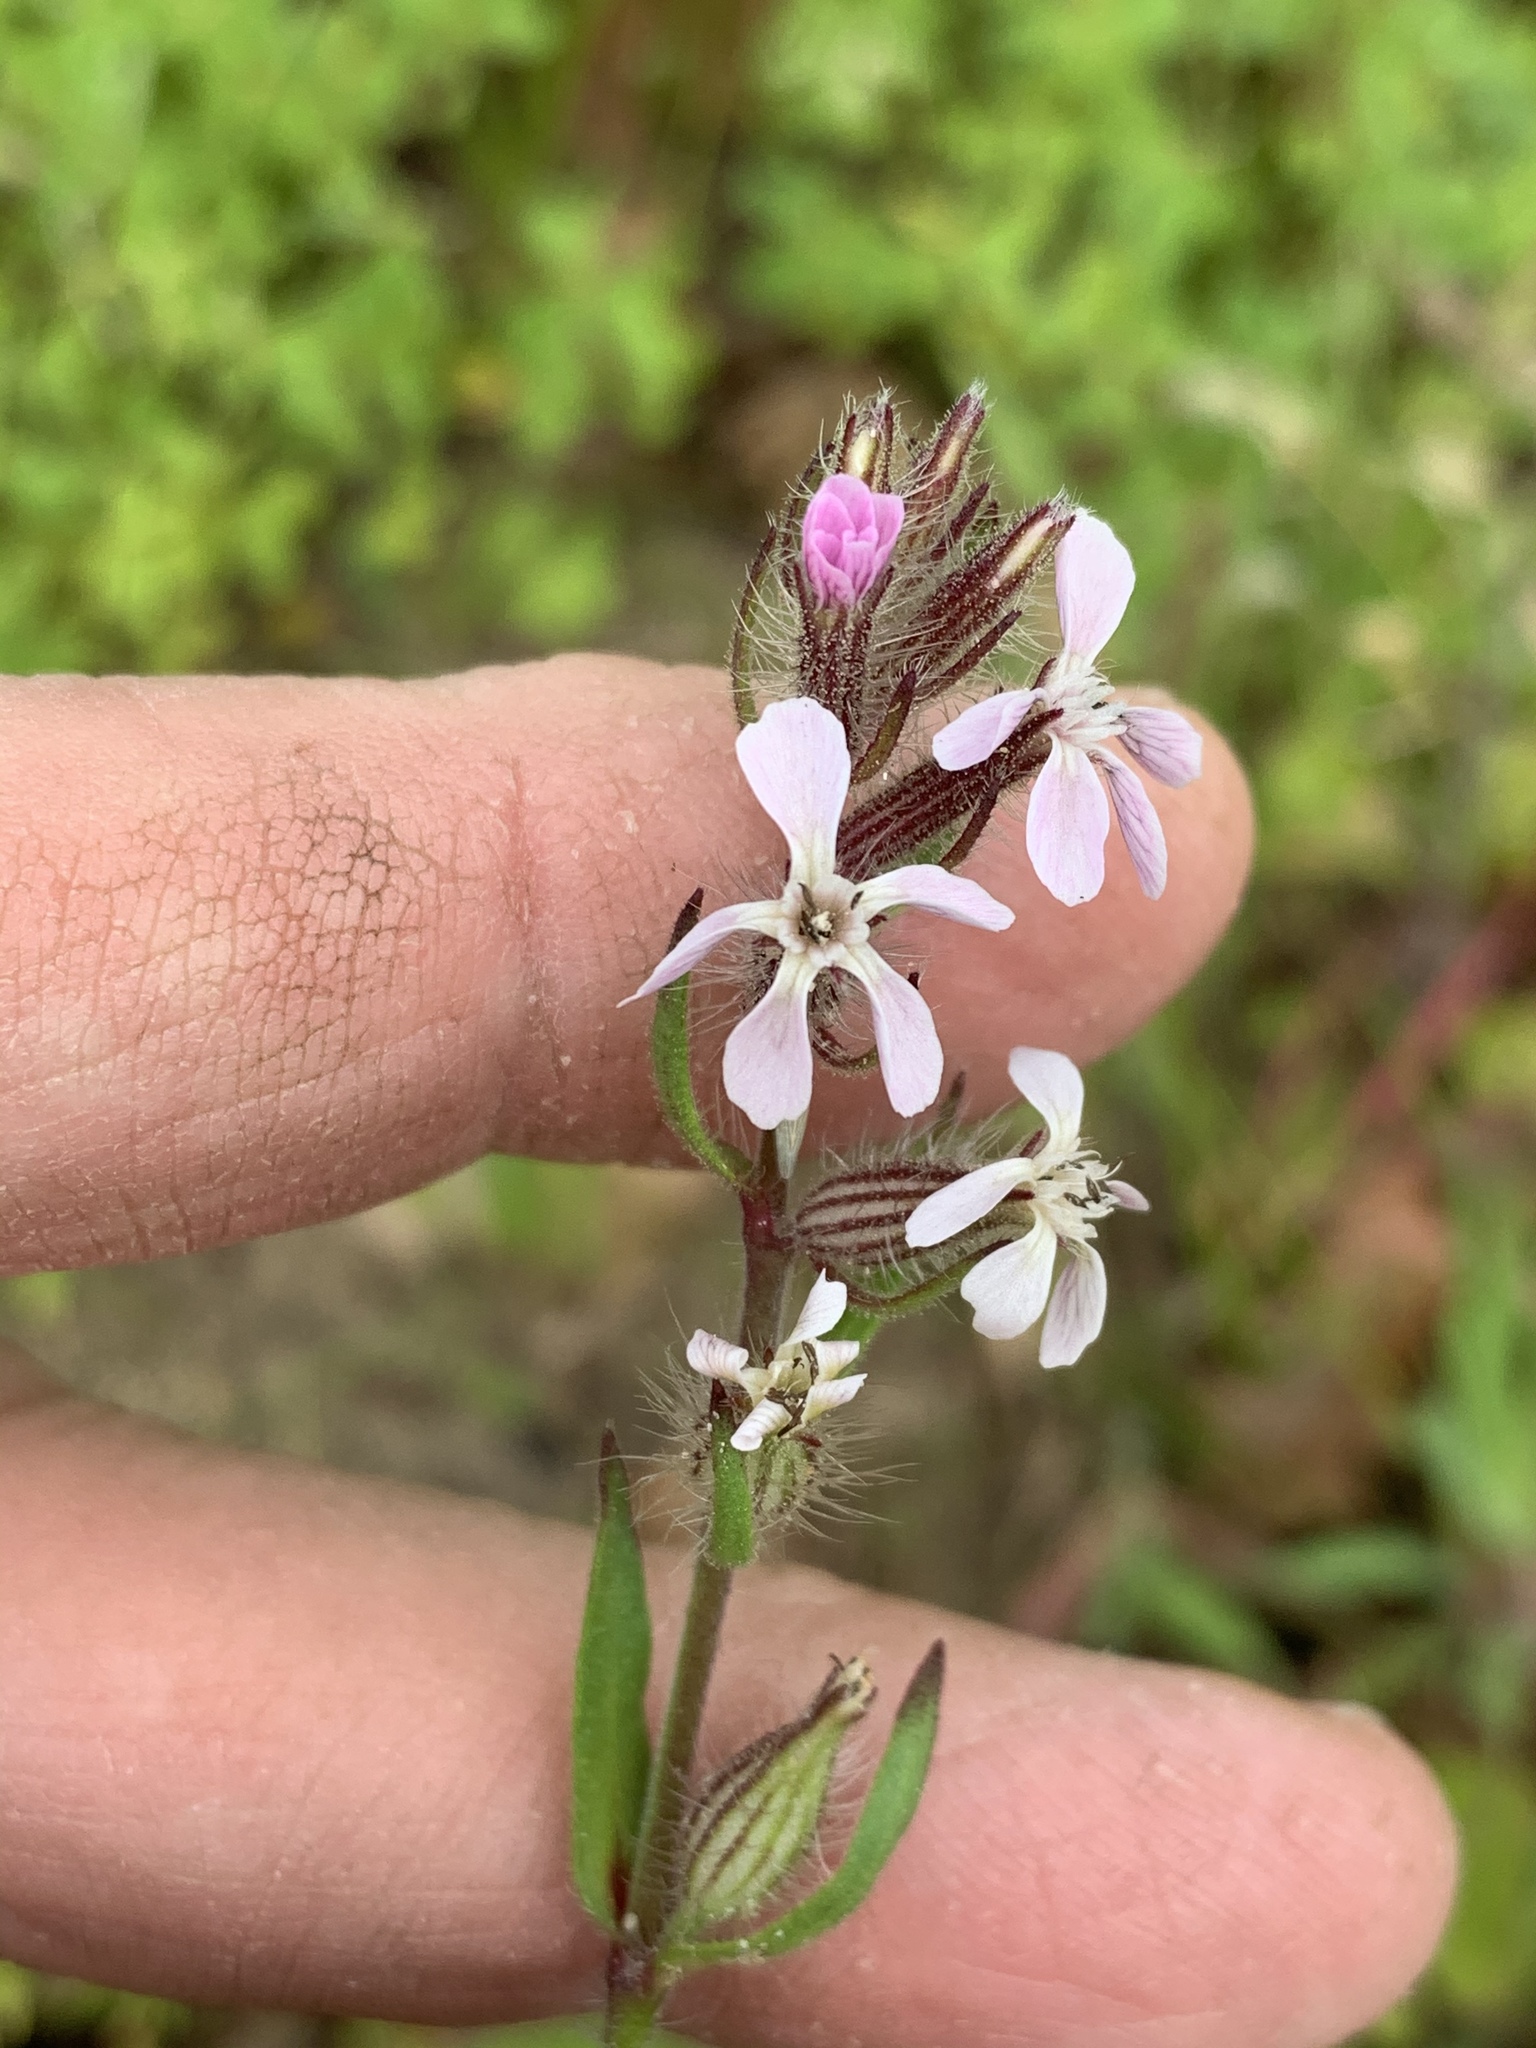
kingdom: Plantae
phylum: Tracheophyta
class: Magnoliopsida
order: Caryophyllales
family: Caryophyllaceae
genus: Silene
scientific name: Silene gallica
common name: Small-flowered catchfly
